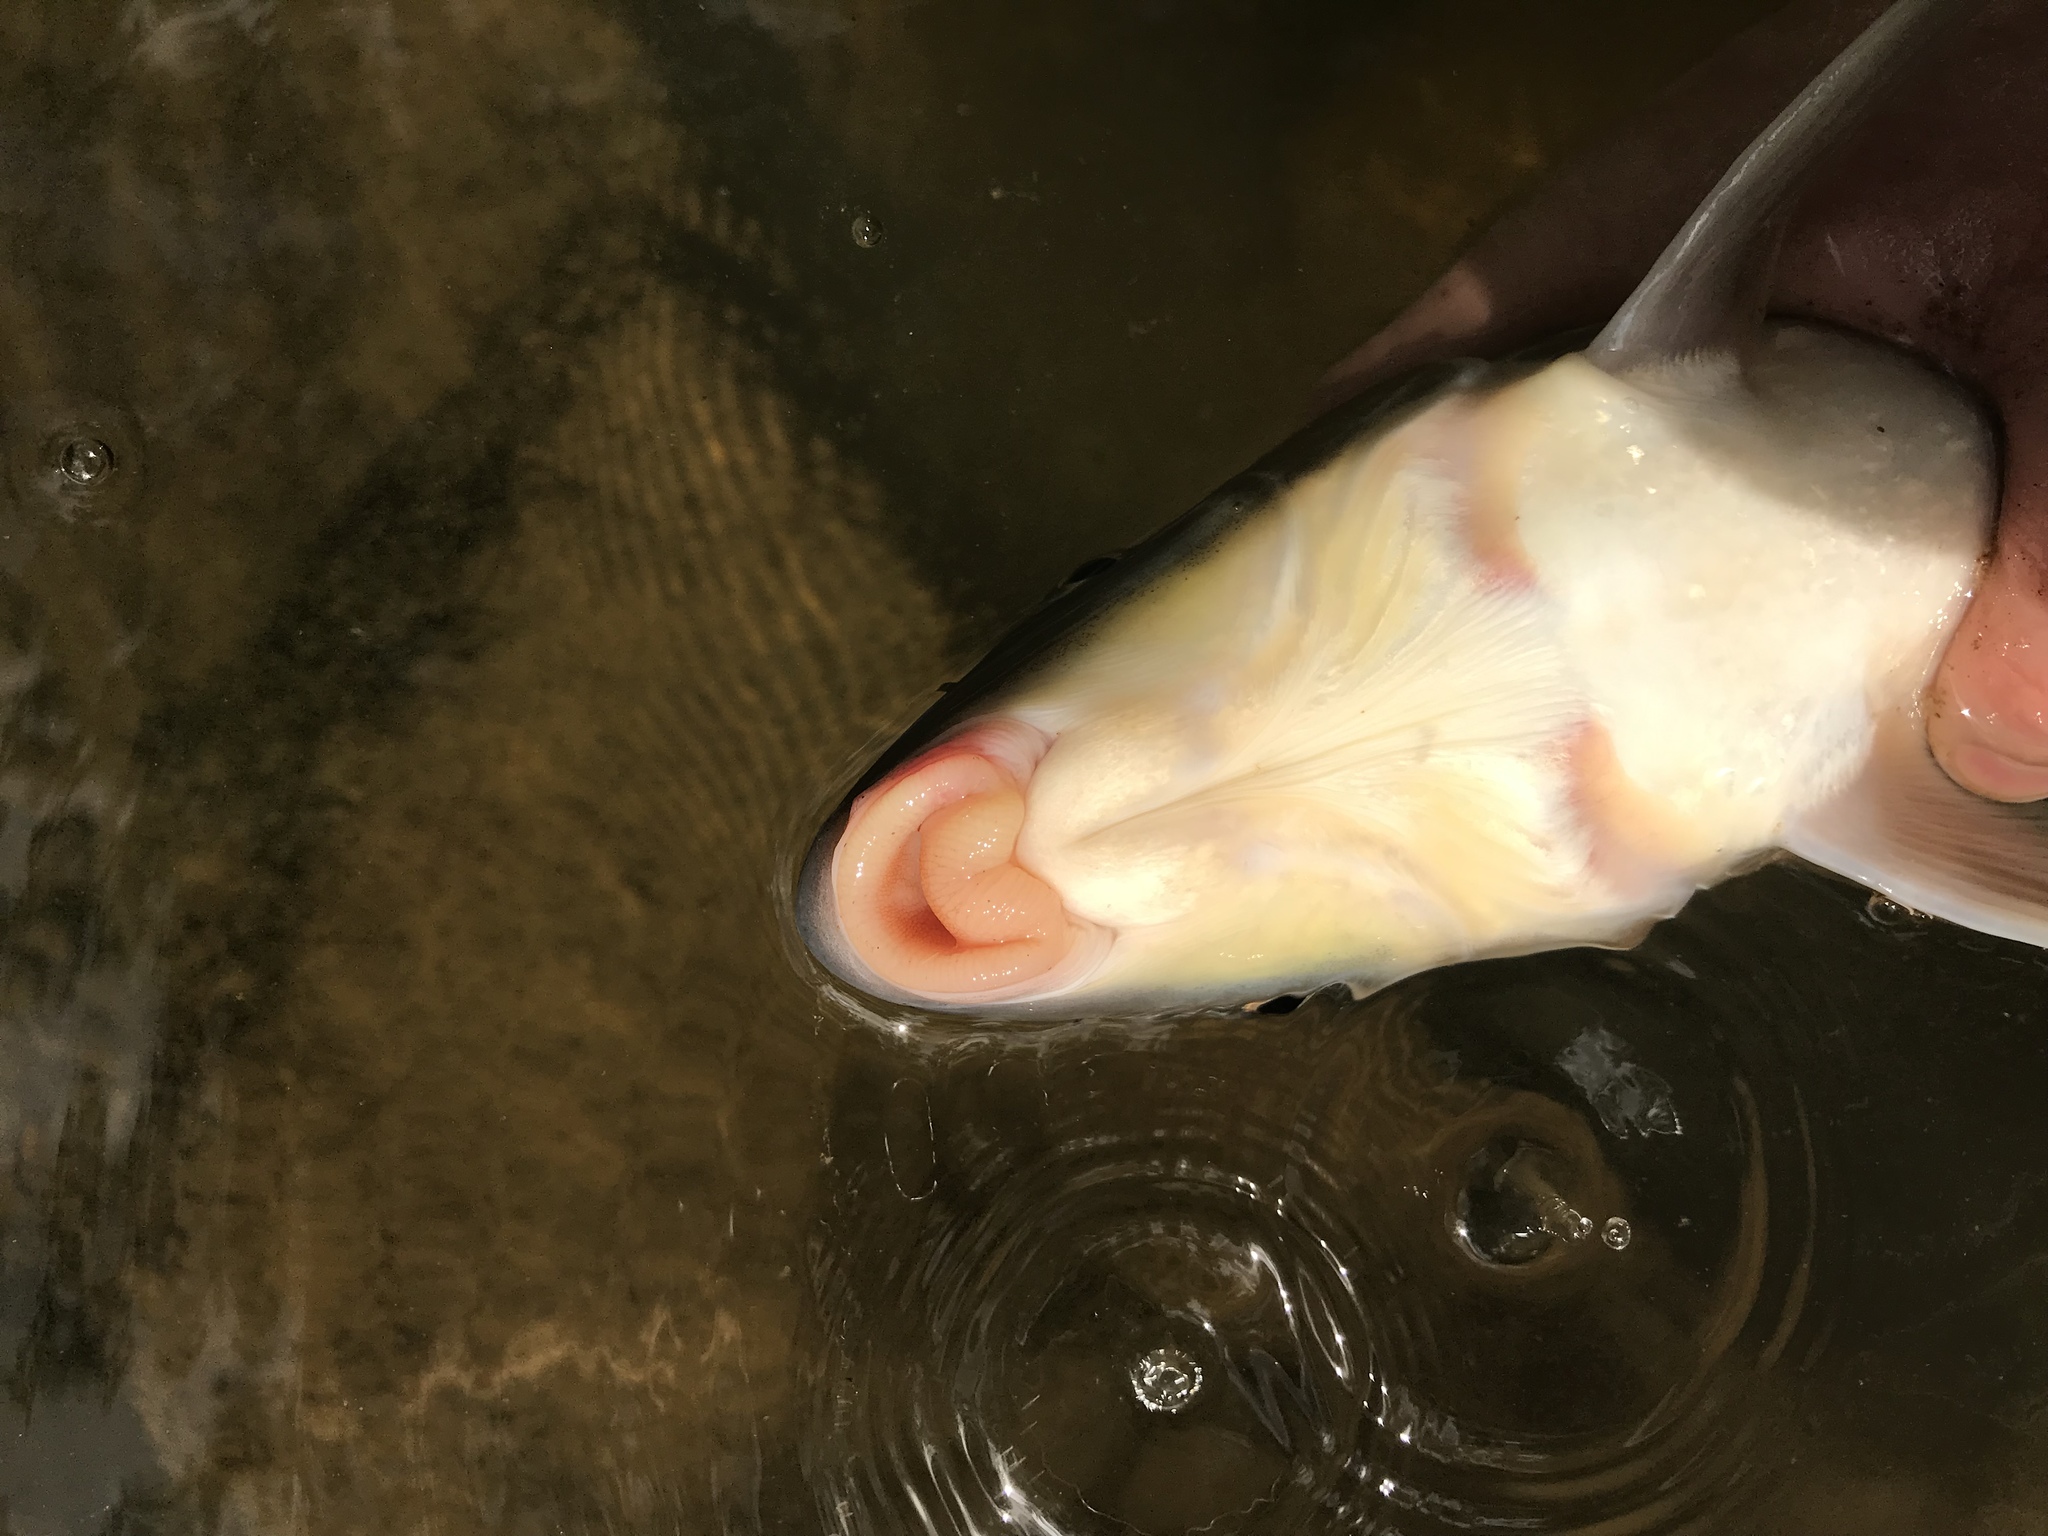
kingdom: Animalia
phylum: Chordata
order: Cypriniformes
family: Catostomidae
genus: Moxostoma
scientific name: Moxostoma collapsum
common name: Notchlip redhorse
